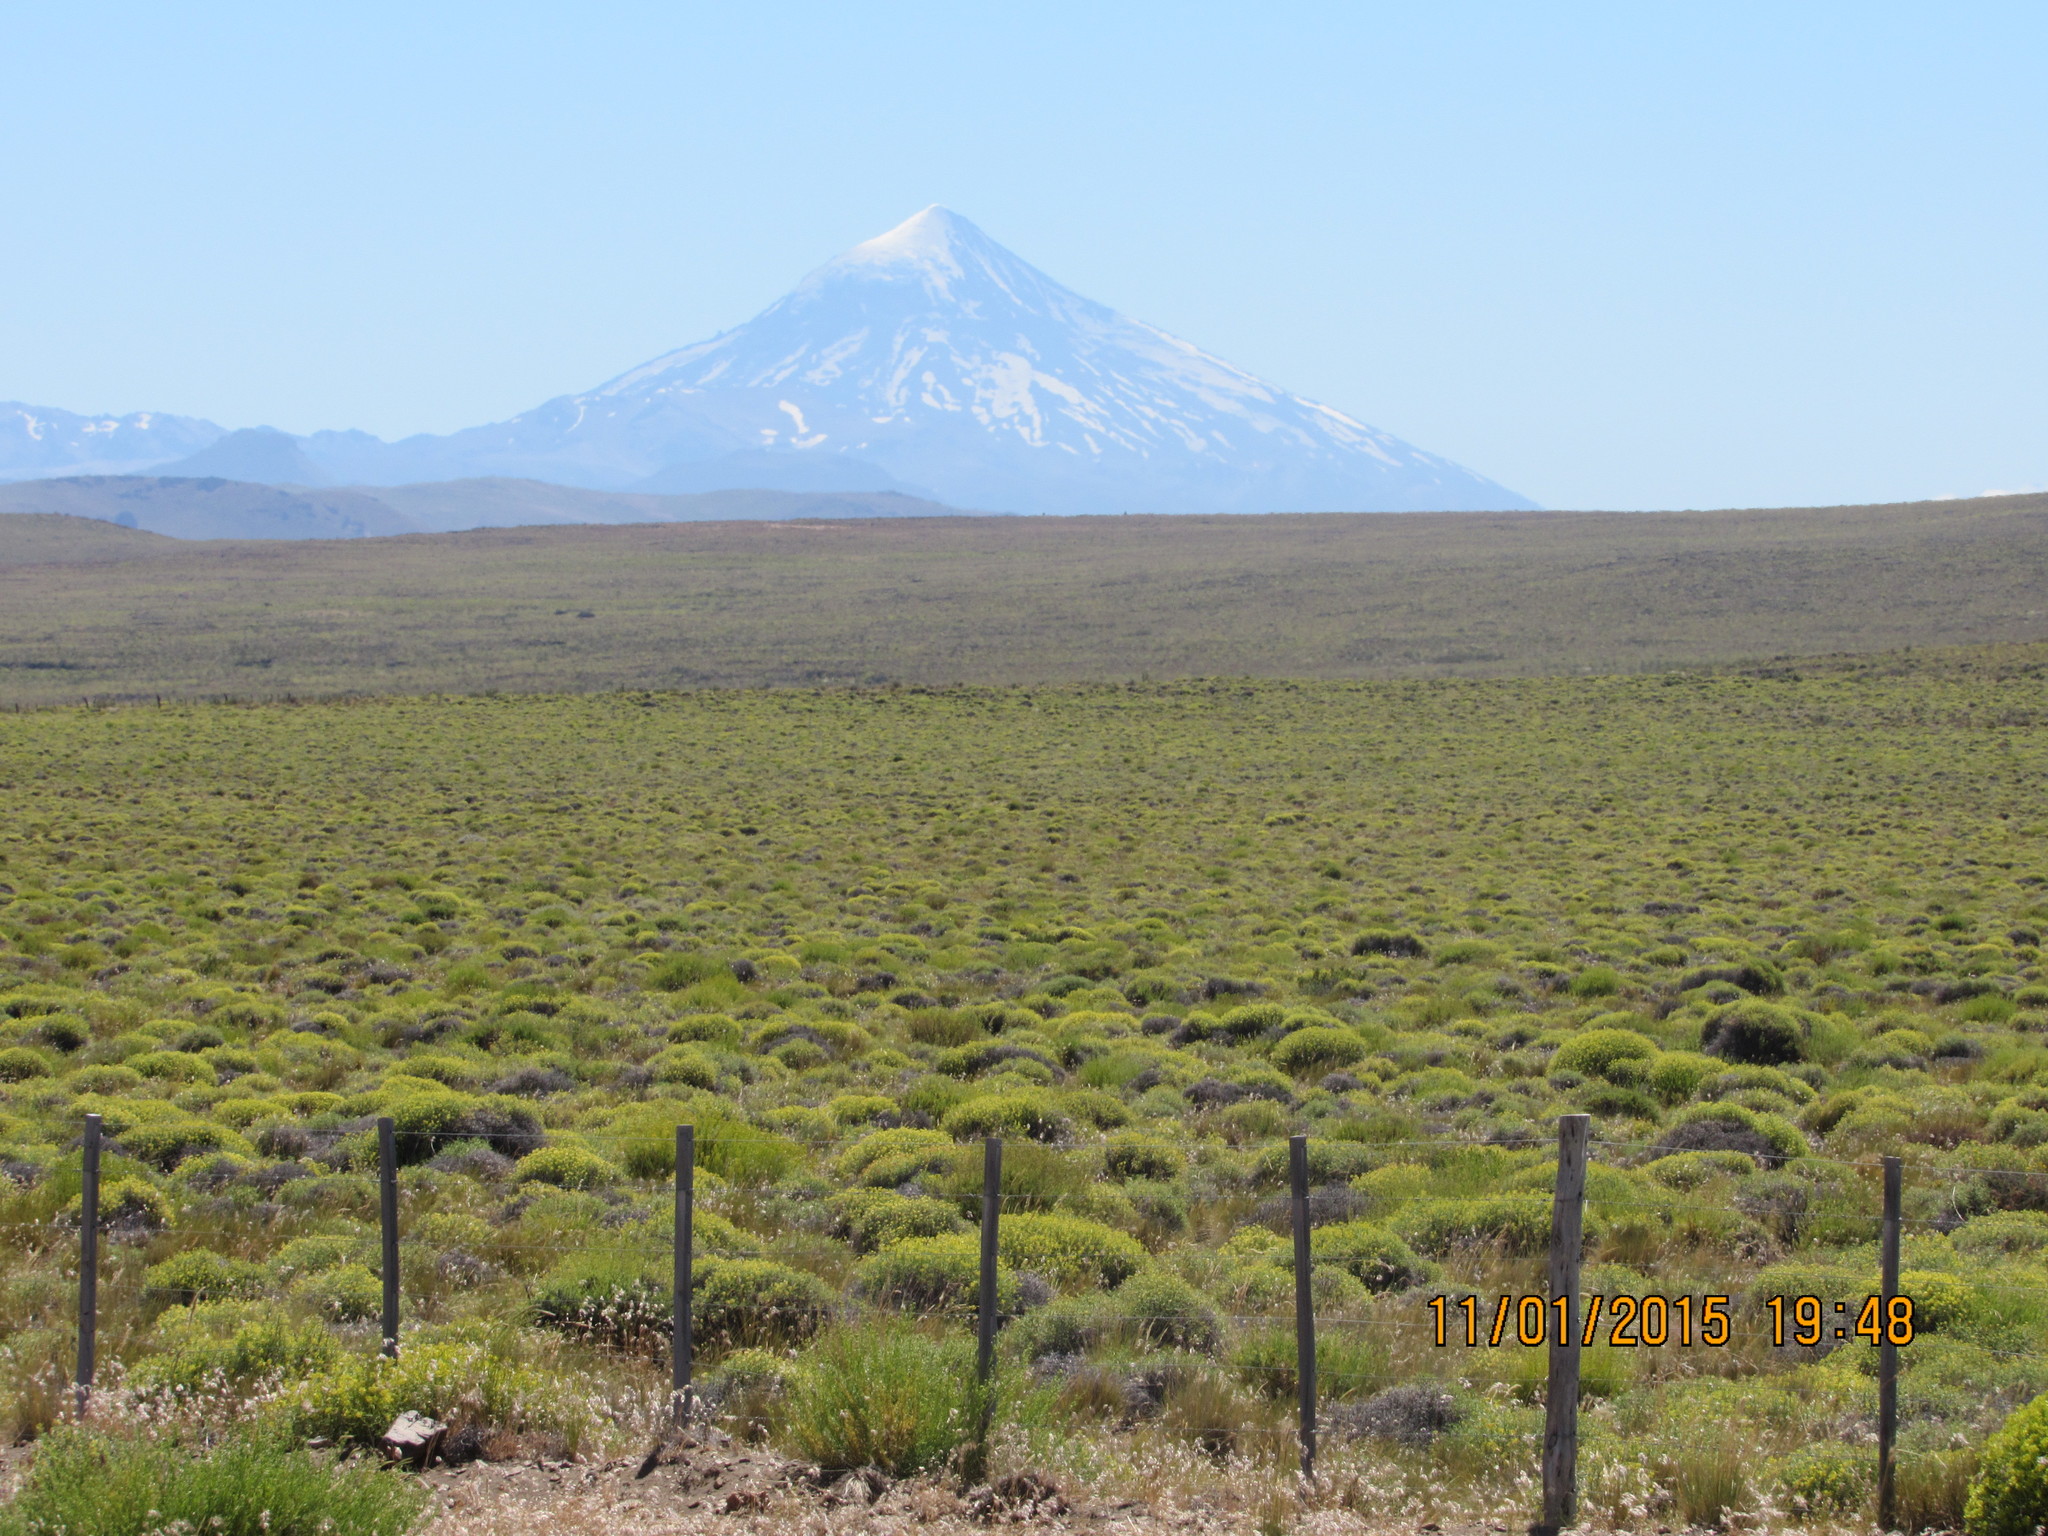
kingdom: Plantae
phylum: Tracheophyta
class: Magnoliopsida
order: Apiales
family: Apiaceae
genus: Azorella
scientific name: Azorella prolifera
